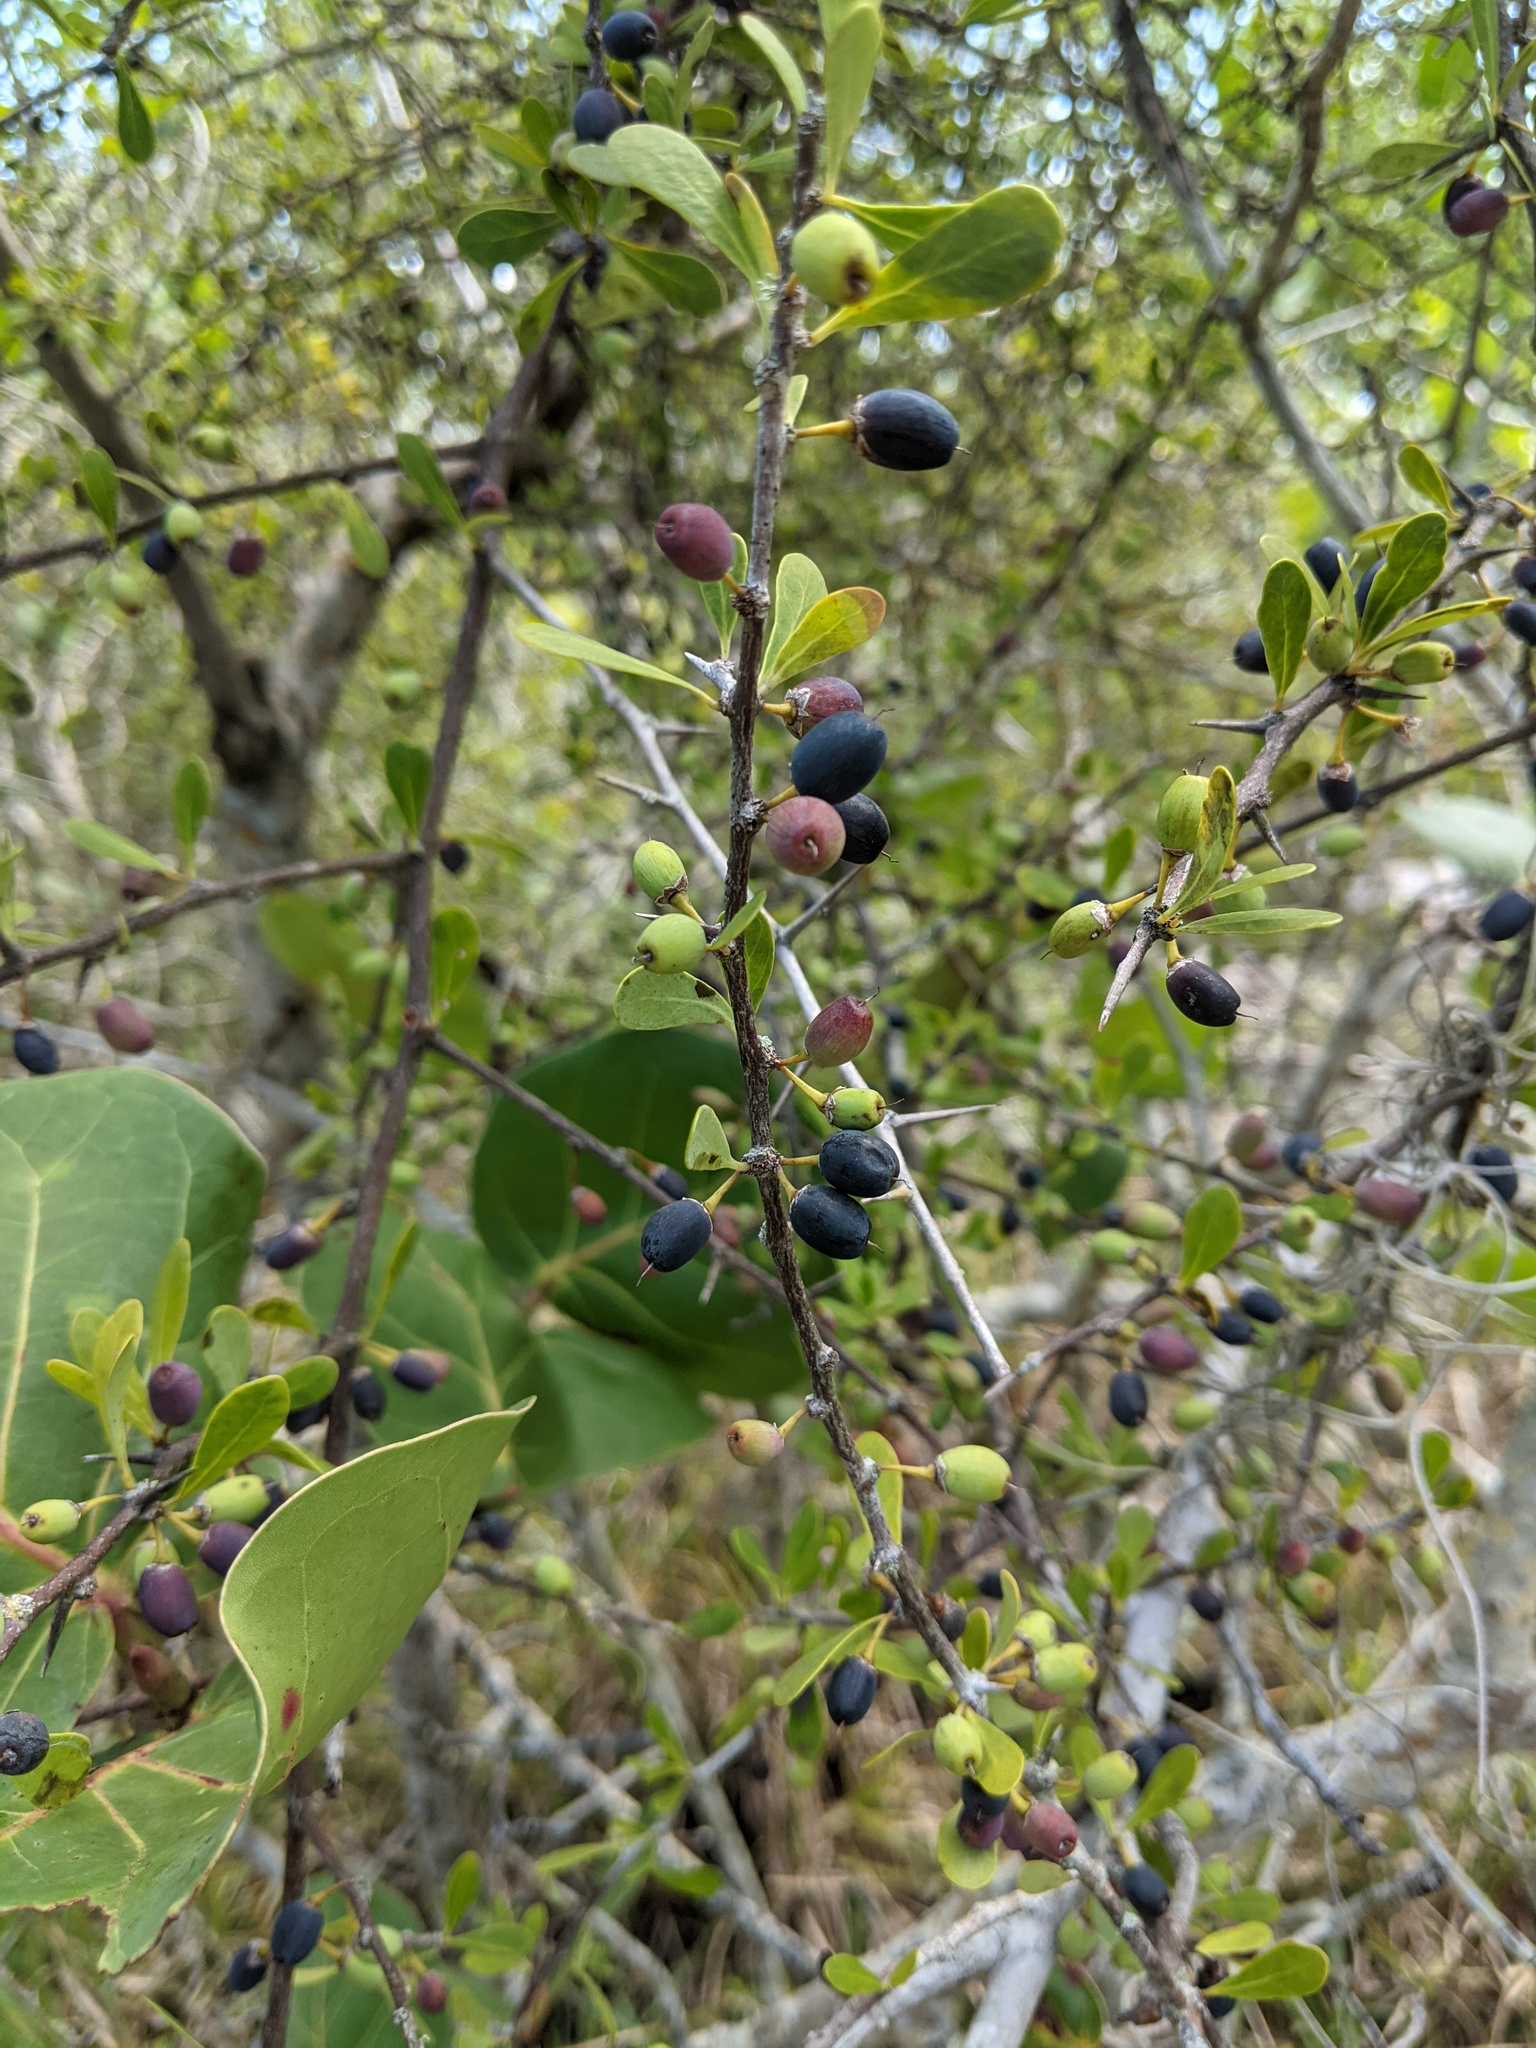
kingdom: Plantae
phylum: Tracheophyta
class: Magnoliopsida
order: Ericales
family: Sapotaceae
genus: Sideroxylon
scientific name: Sideroxylon celastrinum
